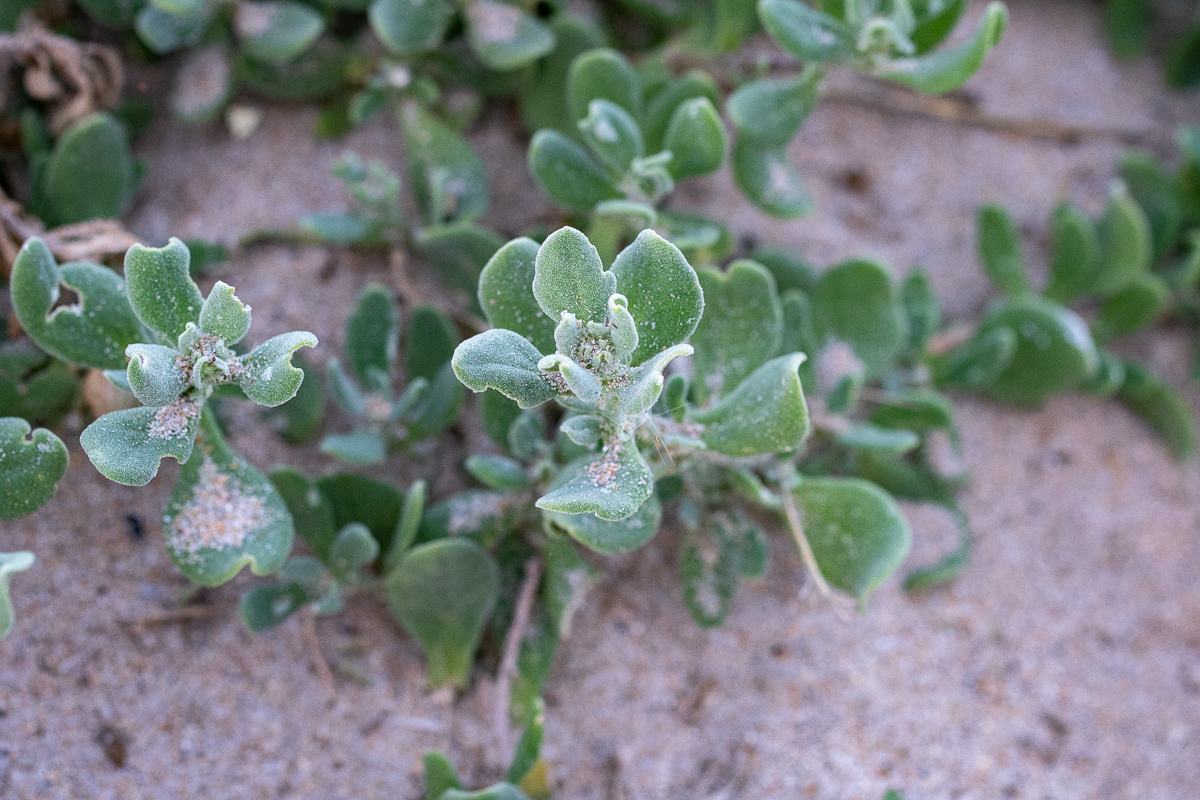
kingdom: Plantae
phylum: Tracheophyta
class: Magnoliopsida
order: Caryophyllales
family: Aizoaceae
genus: Tetragonia
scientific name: Tetragonia decumbens
